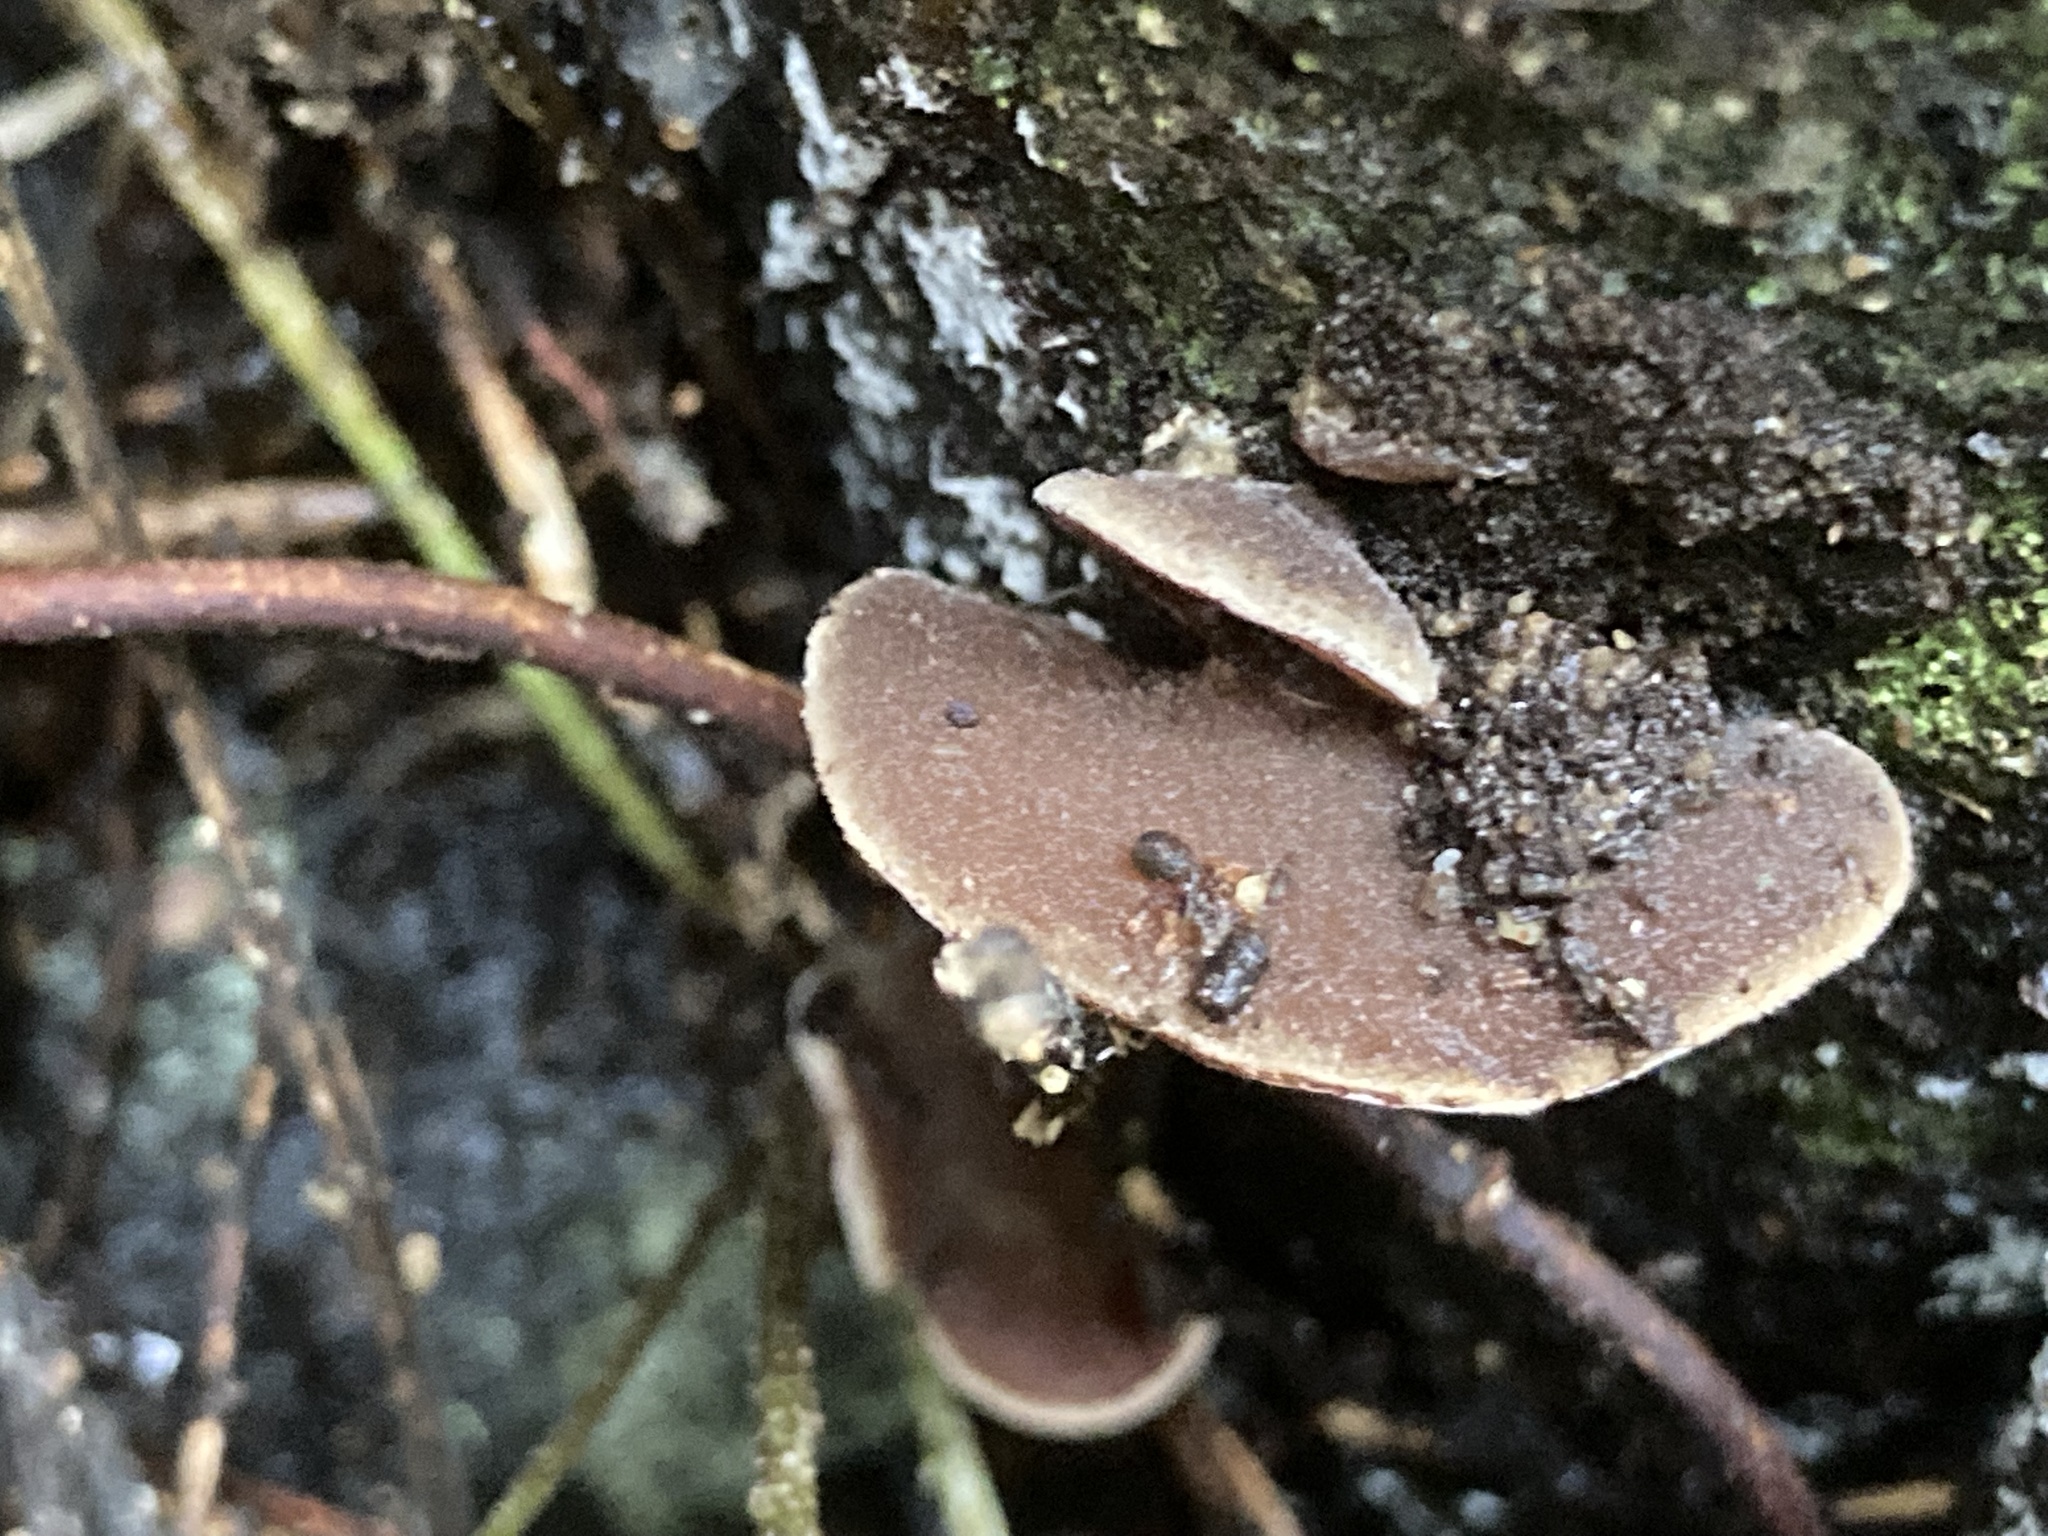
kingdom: Fungi
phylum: Basidiomycota
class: Agaricomycetes
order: Auriculariales
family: Auriculariaceae
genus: Auricularia
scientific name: Auricularia cornea
